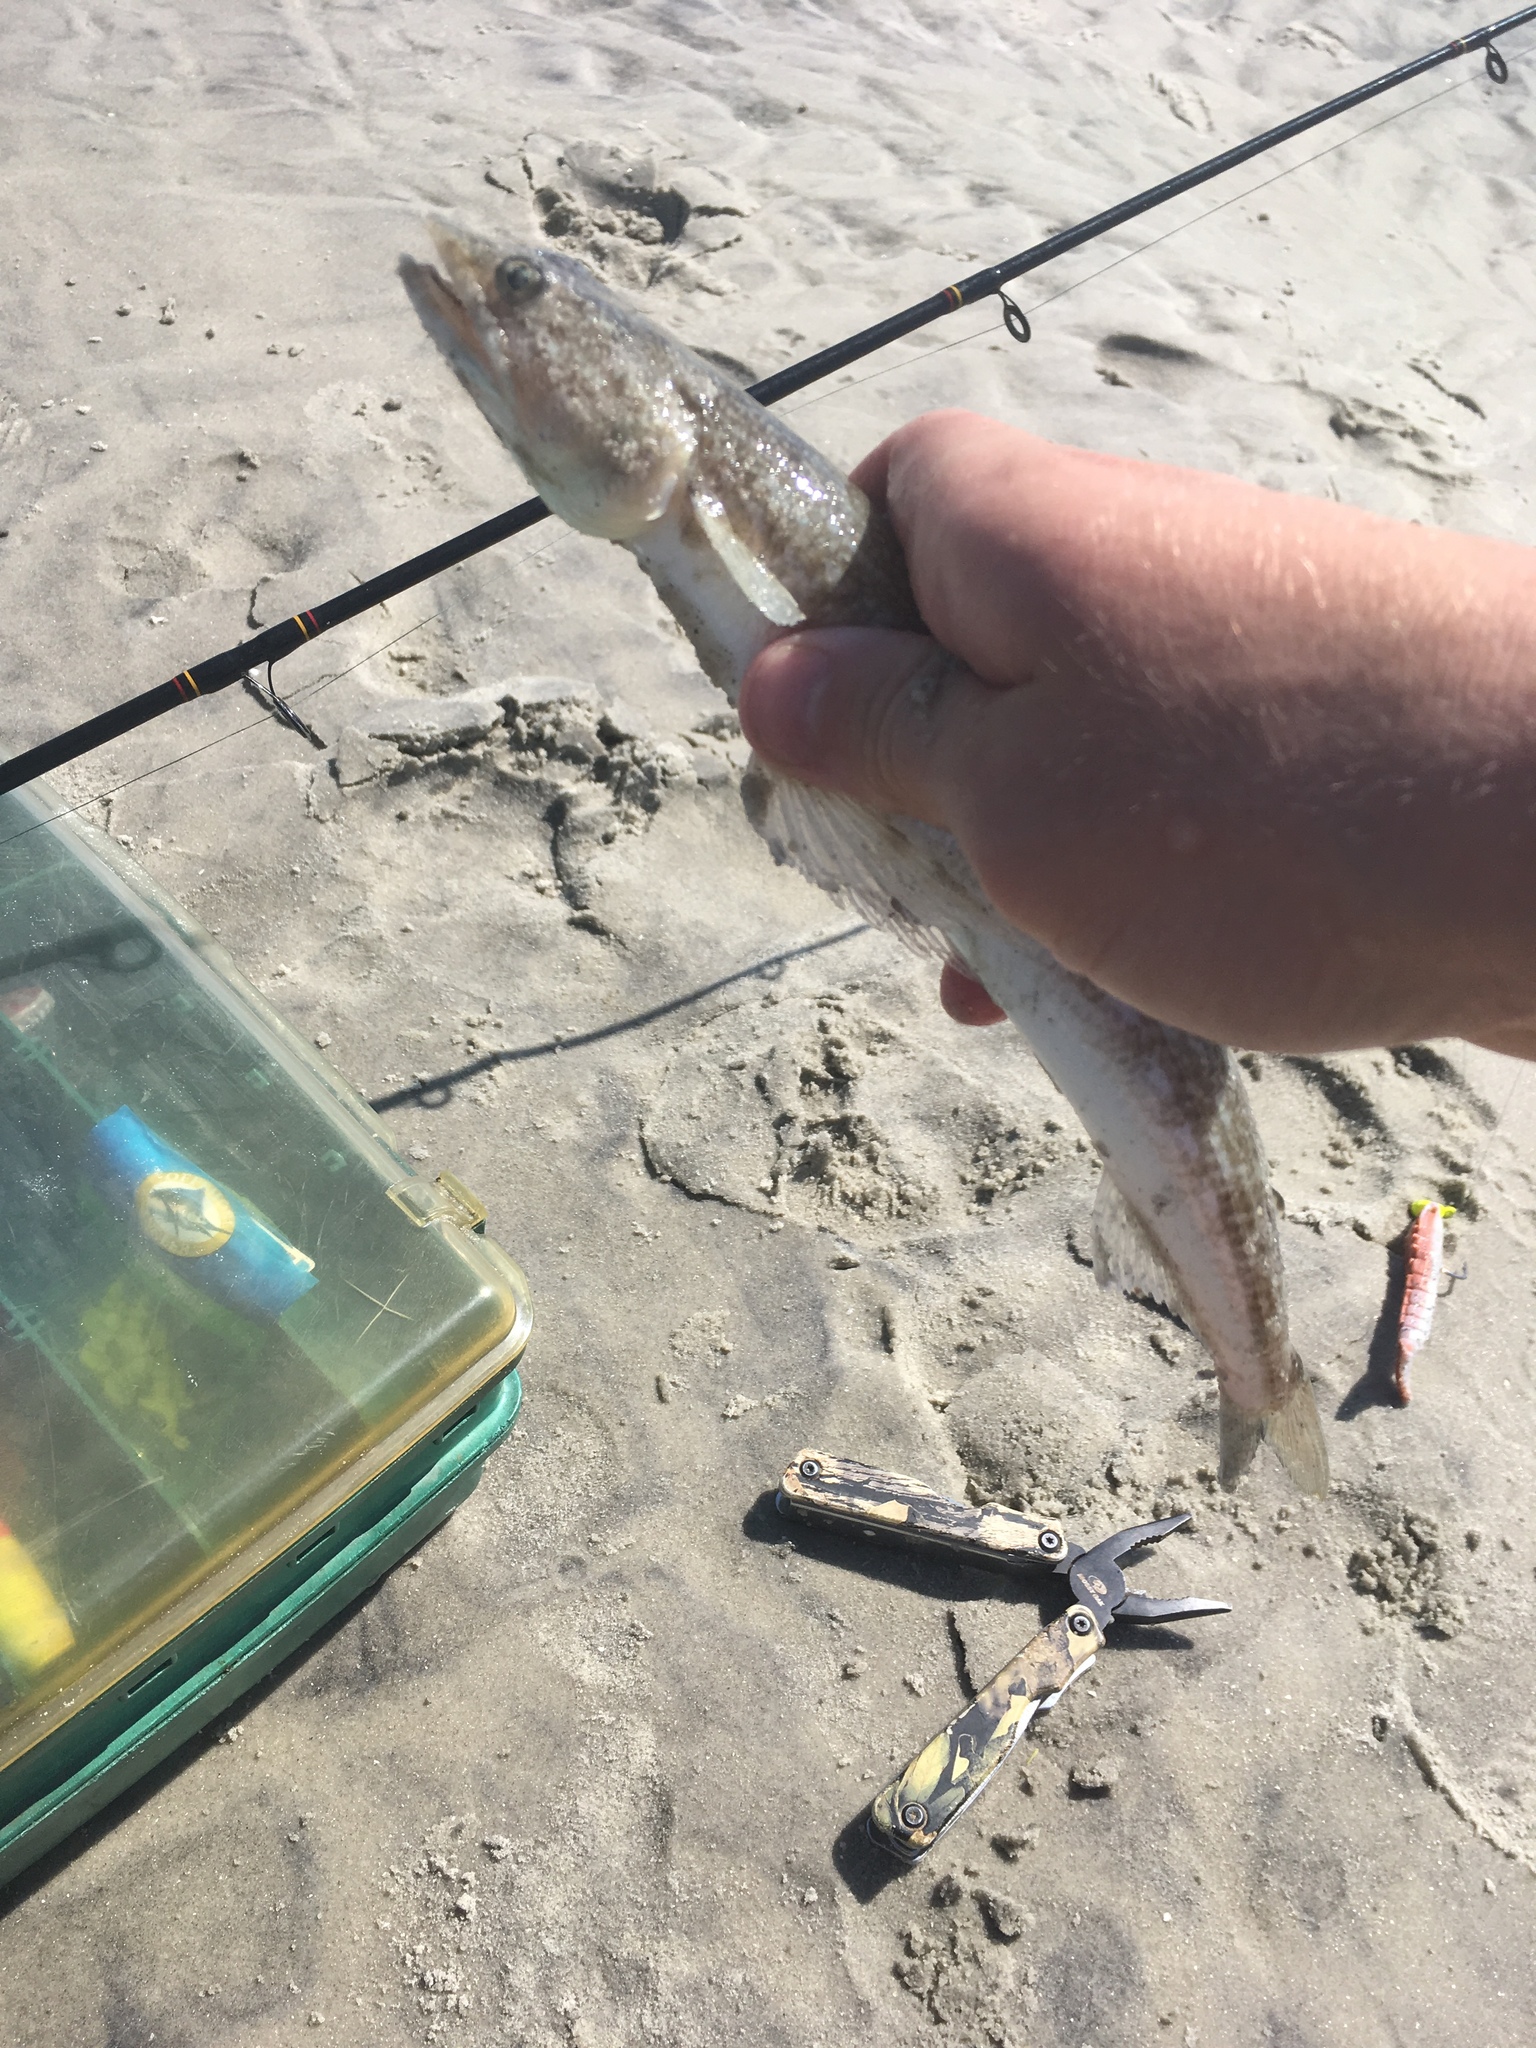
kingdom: Animalia
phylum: Chordata
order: Aulopiformes
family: Synodontidae
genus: Synodus
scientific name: Synodus foetens
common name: Inshore lizardfish
